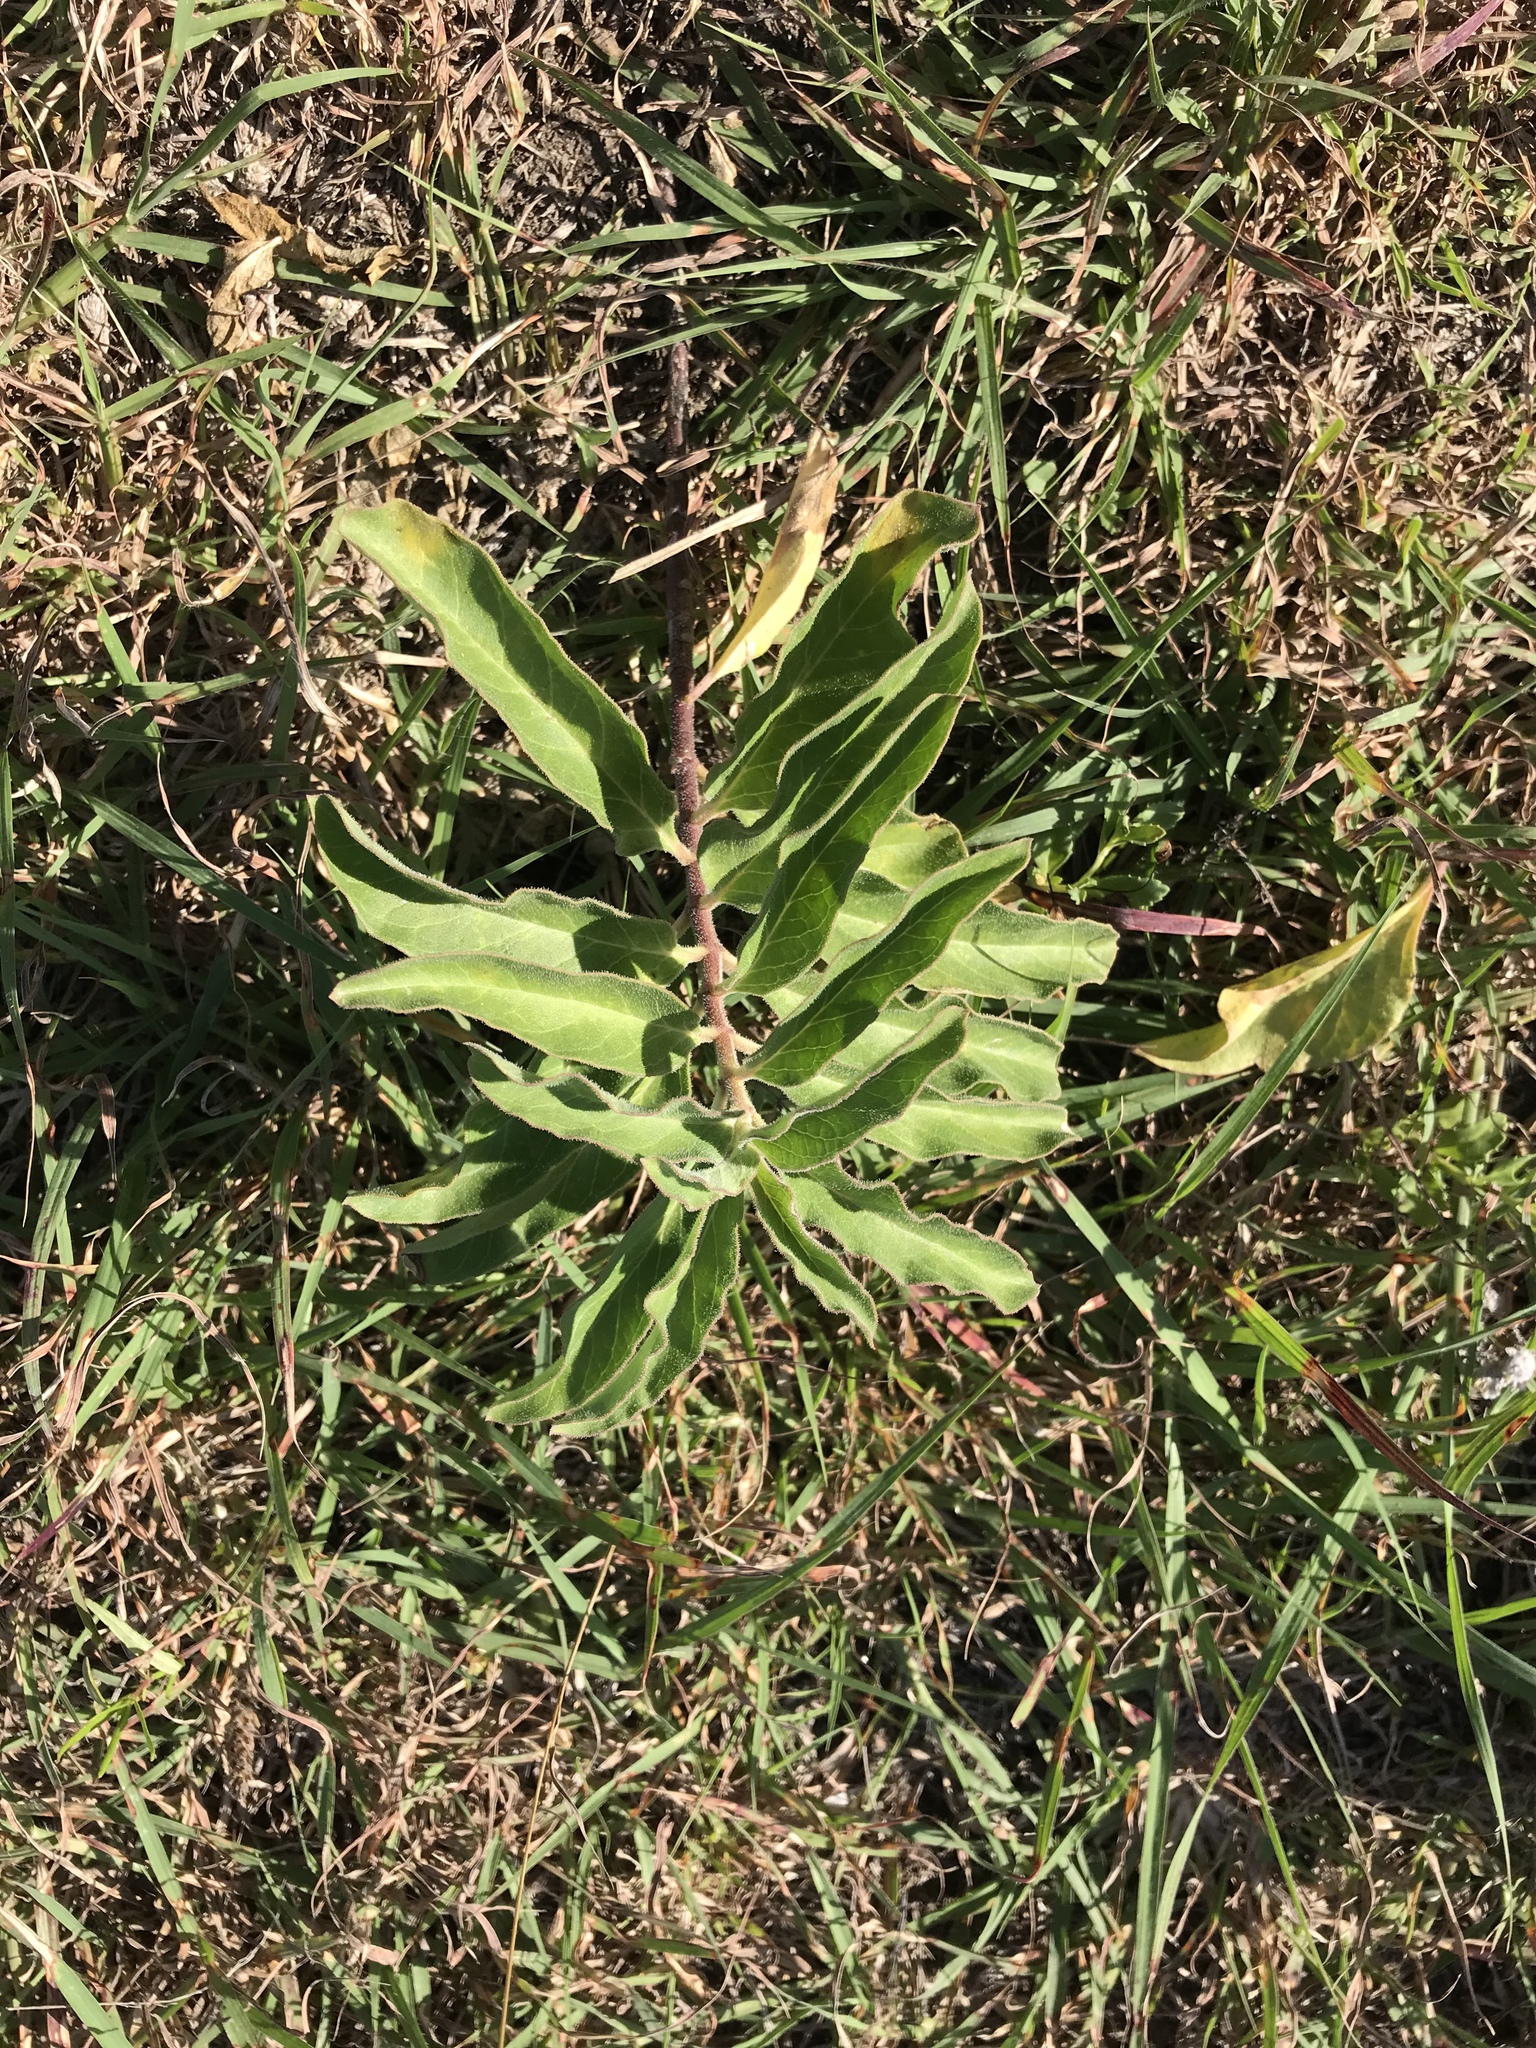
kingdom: Plantae
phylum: Tracheophyta
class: Magnoliopsida
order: Gentianales
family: Apocynaceae
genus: Asclepias
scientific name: Asclepias oenotheroides
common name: Zizotes milkweed
